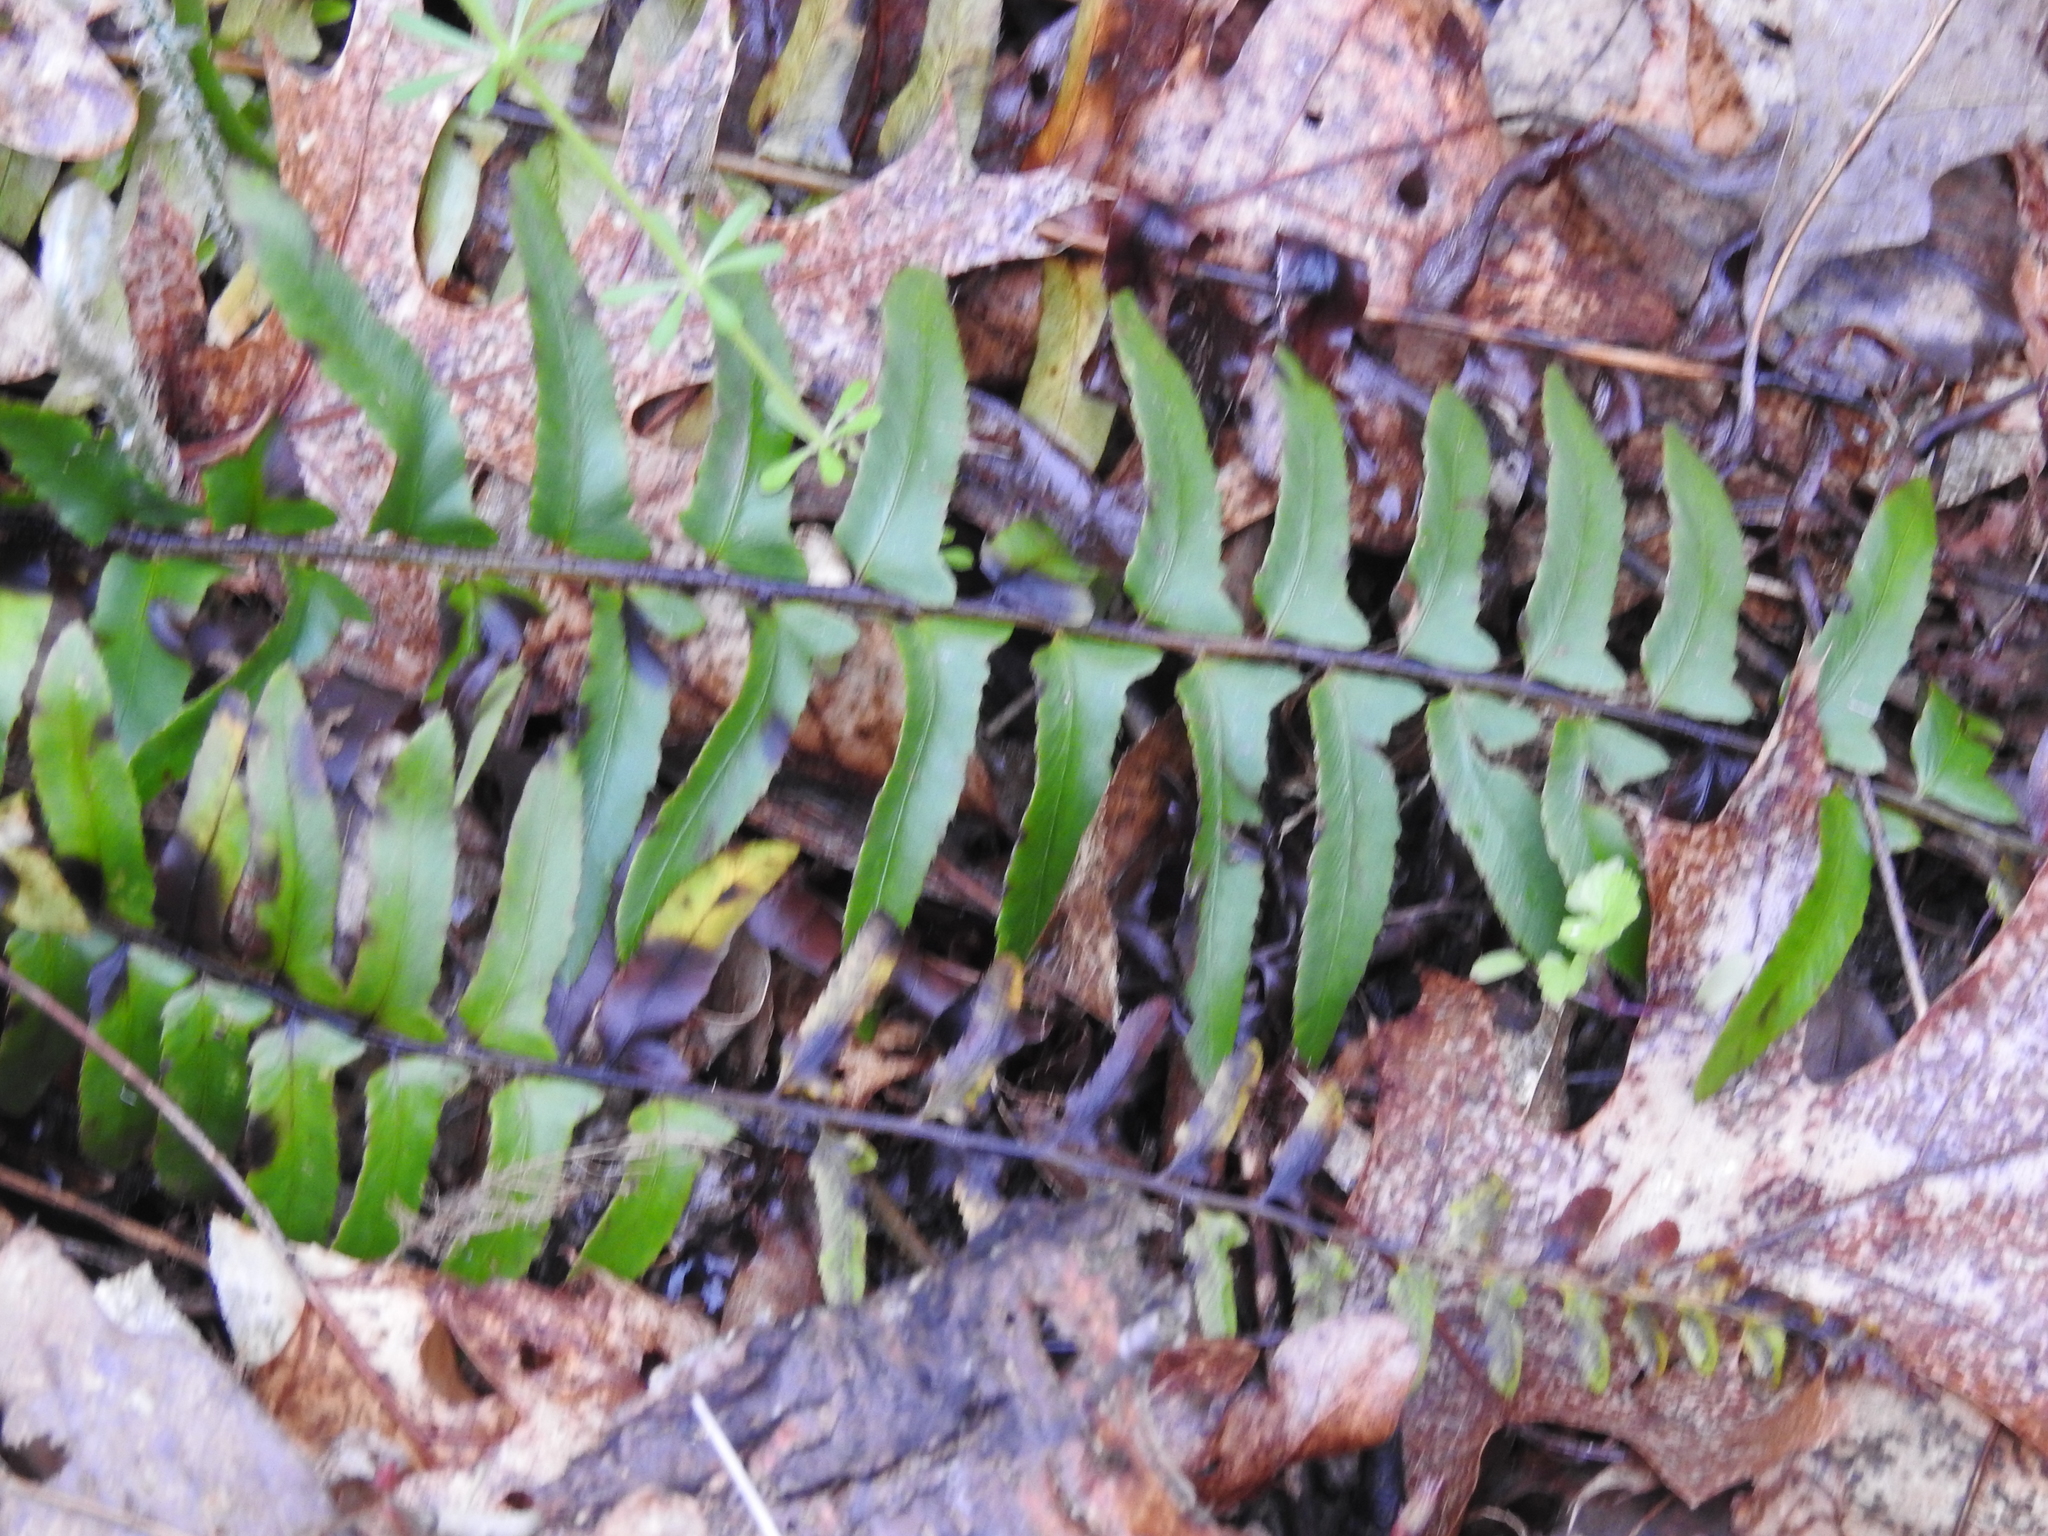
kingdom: Plantae
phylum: Tracheophyta
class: Polypodiopsida
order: Polypodiales
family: Dryopteridaceae
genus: Polystichum
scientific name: Polystichum acrostichoides
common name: Christmas fern
